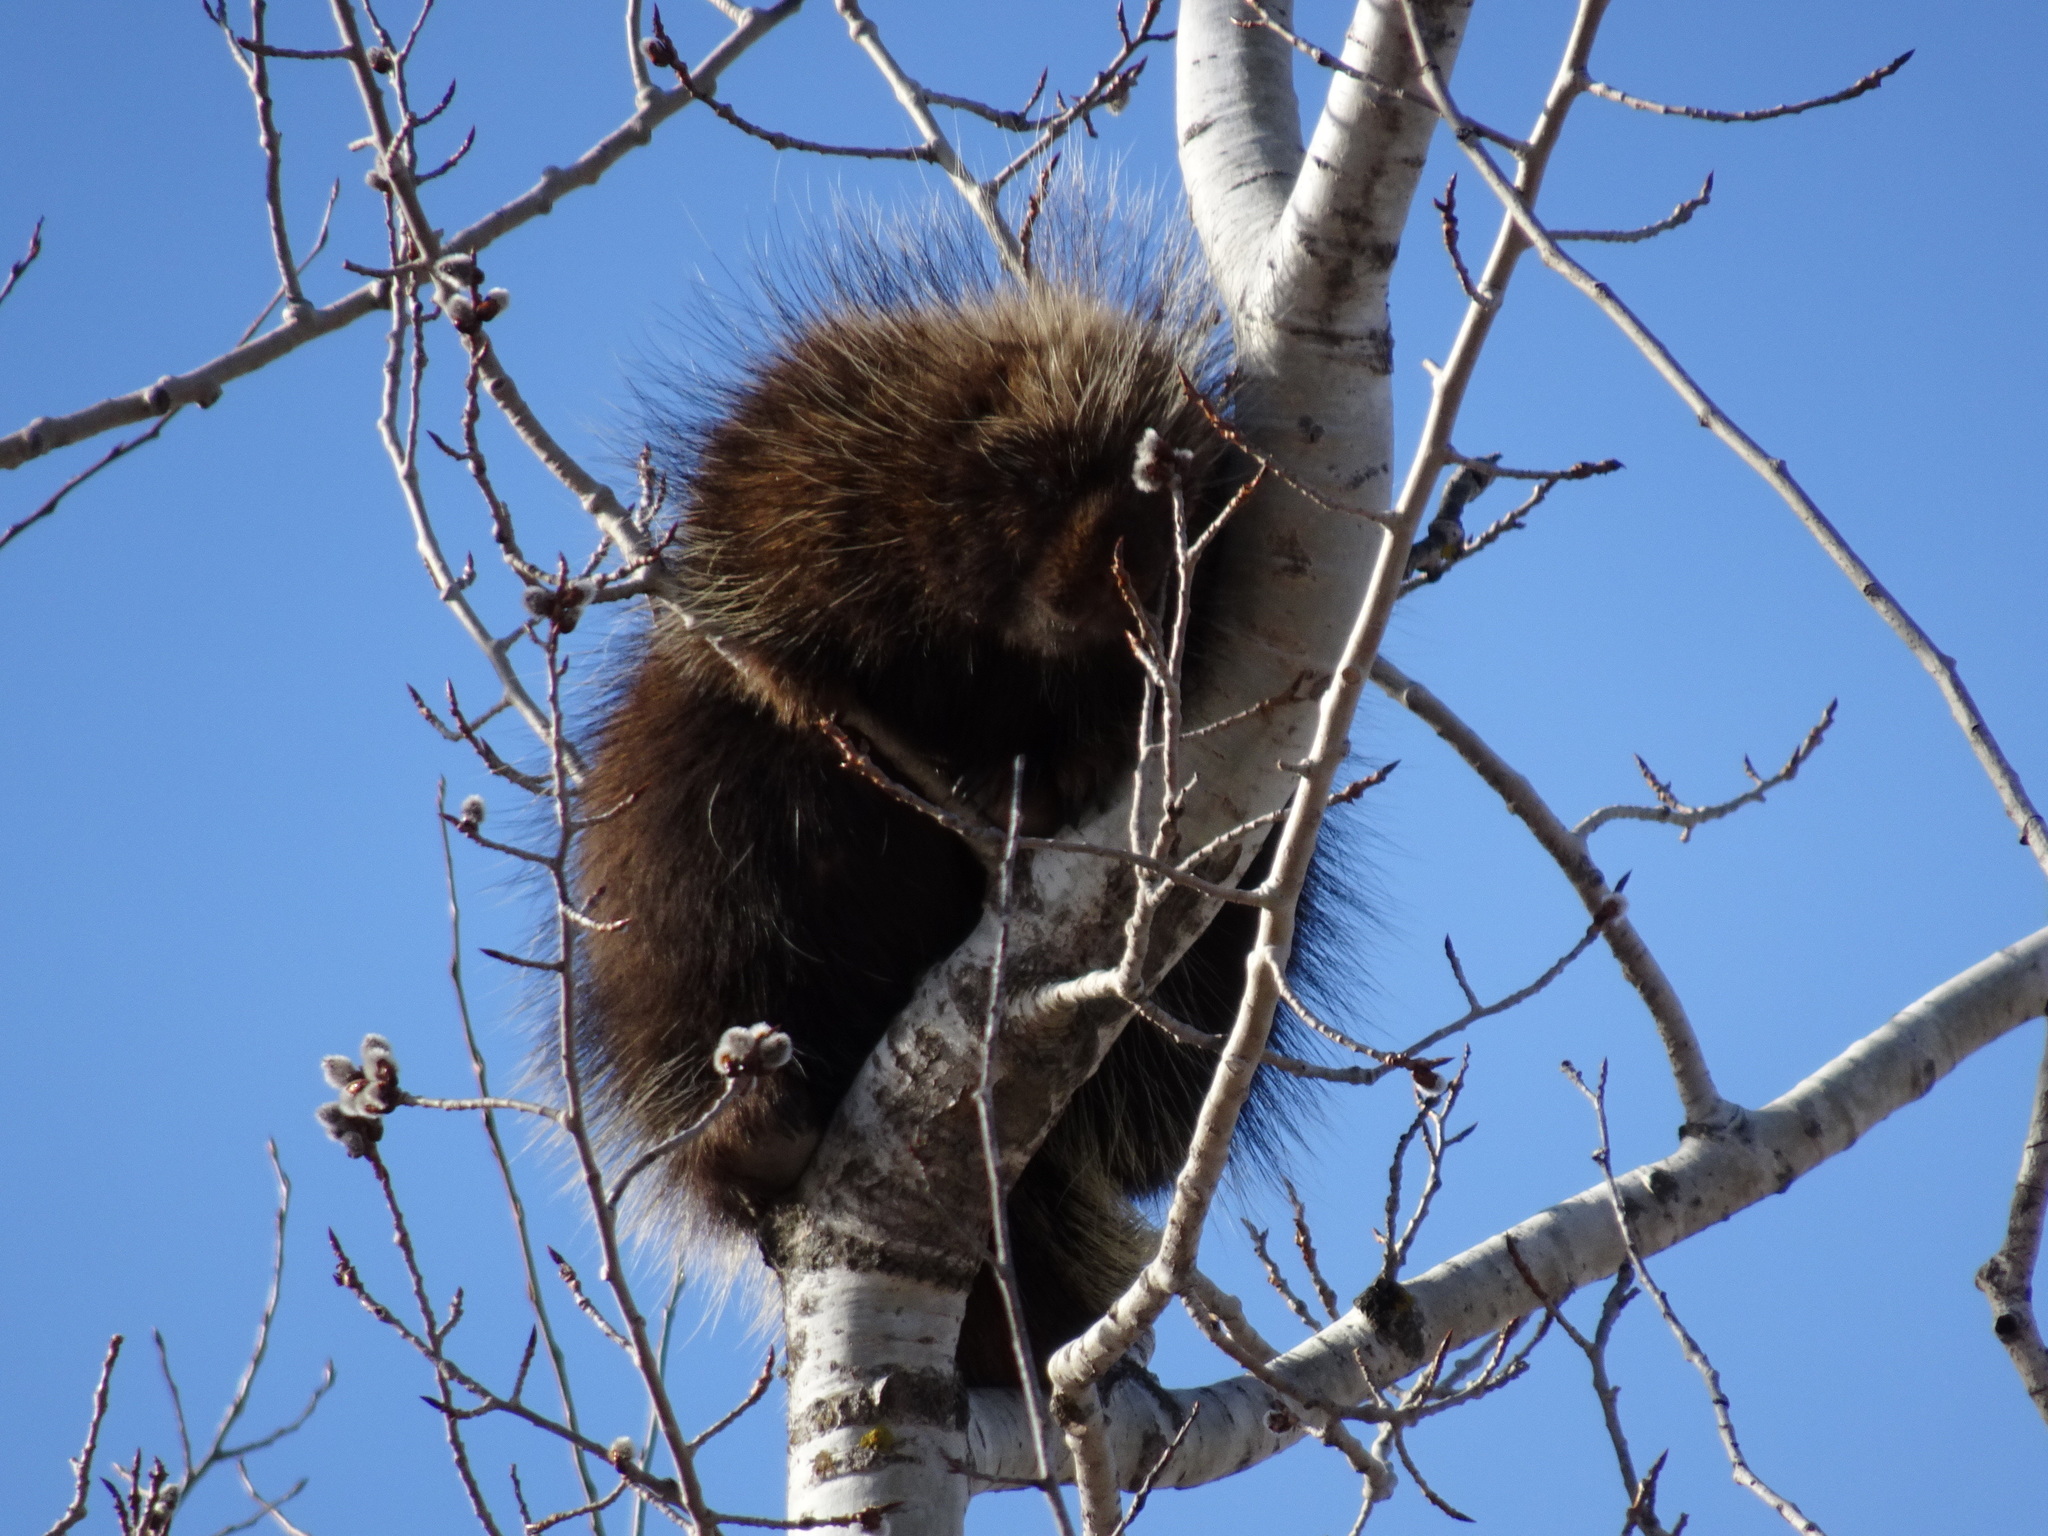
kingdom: Animalia
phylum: Chordata
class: Mammalia
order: Rodentia
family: Erethizontidae
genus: Erethizon
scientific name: Erethizon dorsatus
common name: North american porcupine
